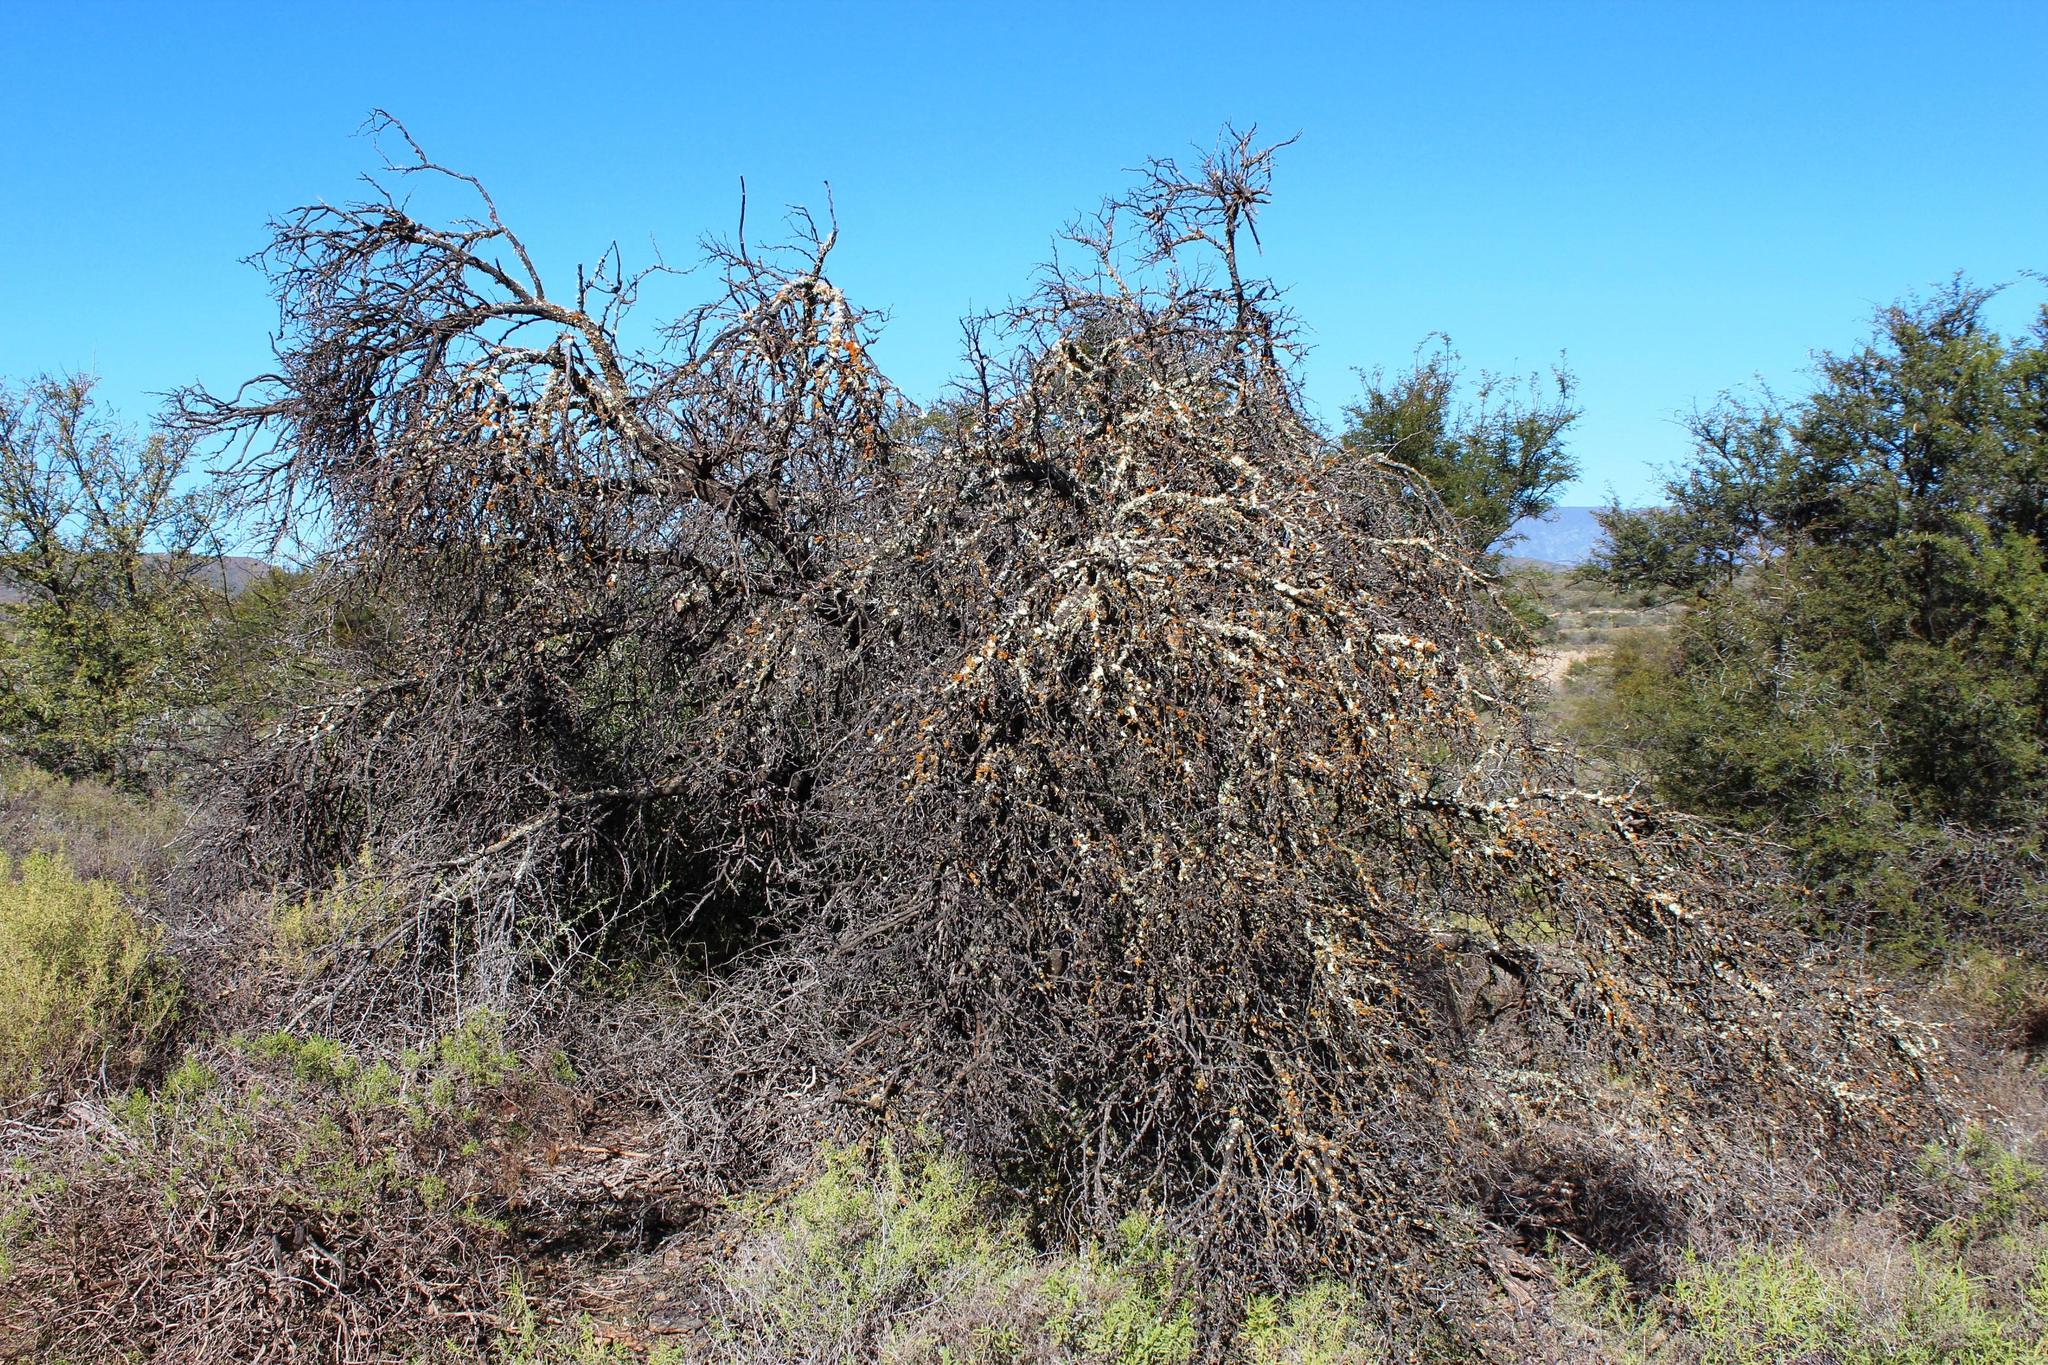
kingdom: Plantae
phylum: Tracheophyta
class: Magnoliopsida
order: Fabales
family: Fabaceae
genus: Vachellia
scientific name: Vachellia karroo
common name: Sweet thorn
